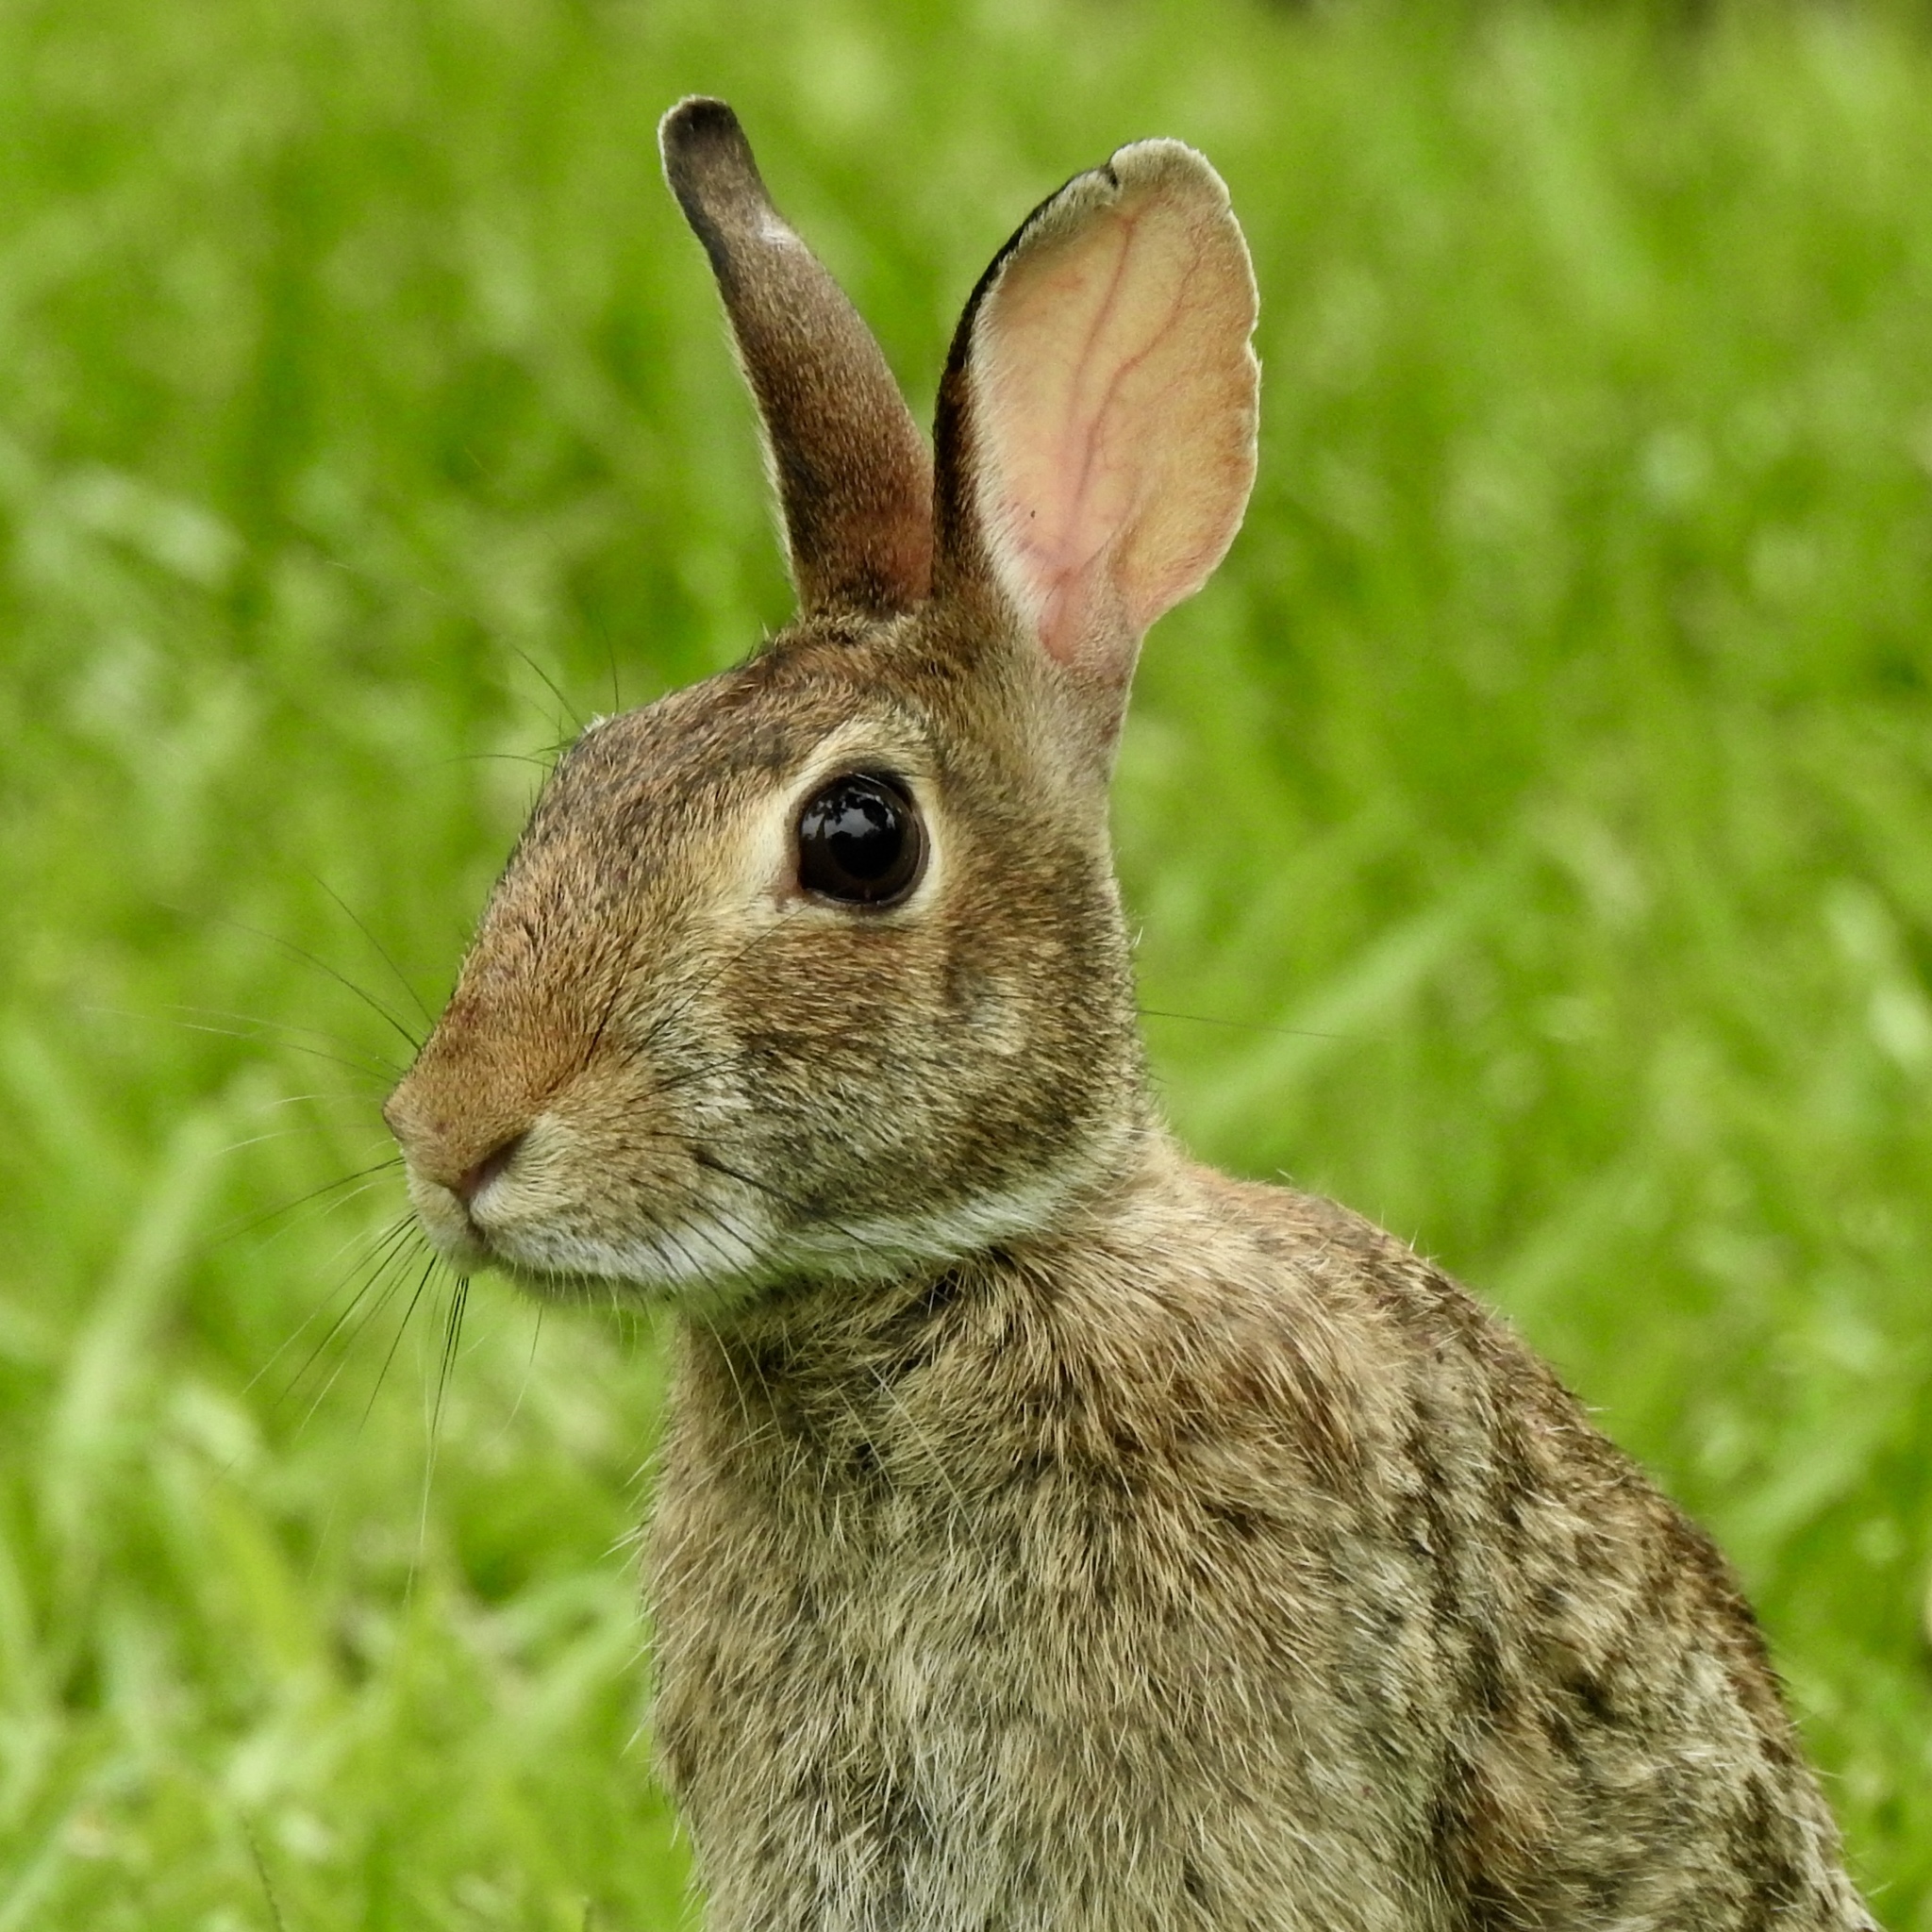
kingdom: Animalia
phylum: Chordata
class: Mammalia
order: Lagomorpha
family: Leporidae
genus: Sylvilagus
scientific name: Sylvilagus floridanus
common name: Eastern cottontail
